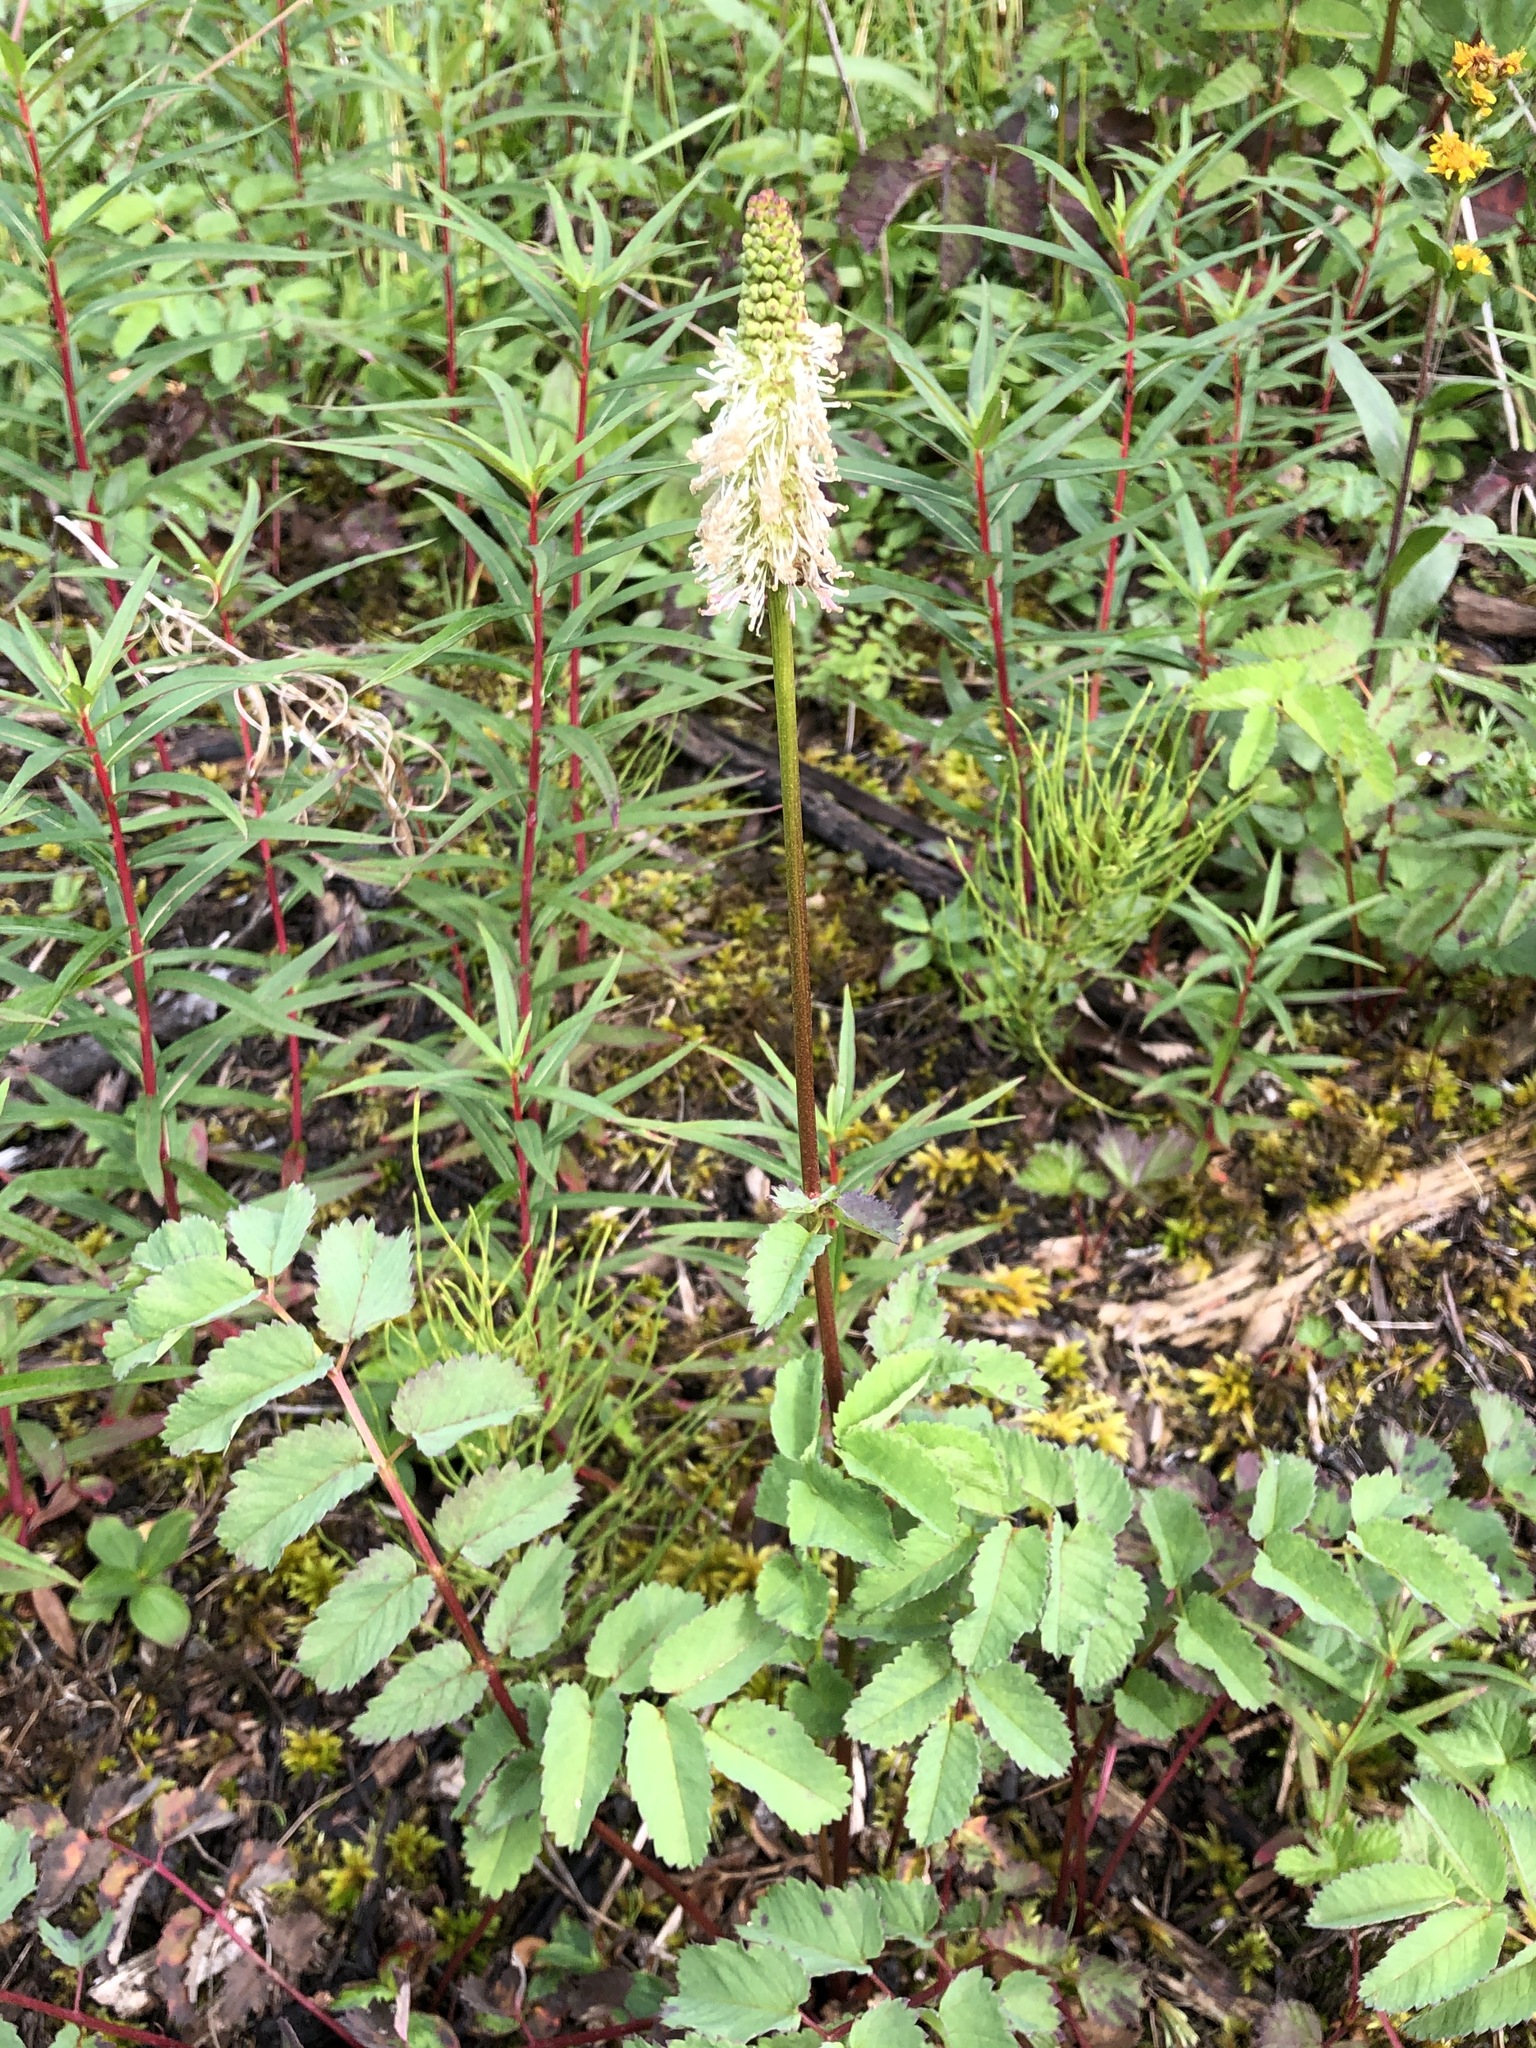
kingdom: Plantae
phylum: Tracheophyta
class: Magnoliopsida
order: Rosales
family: Rosaceae
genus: Sanguisorba
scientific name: Sanguisorba stipulata
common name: Sitka burnet
